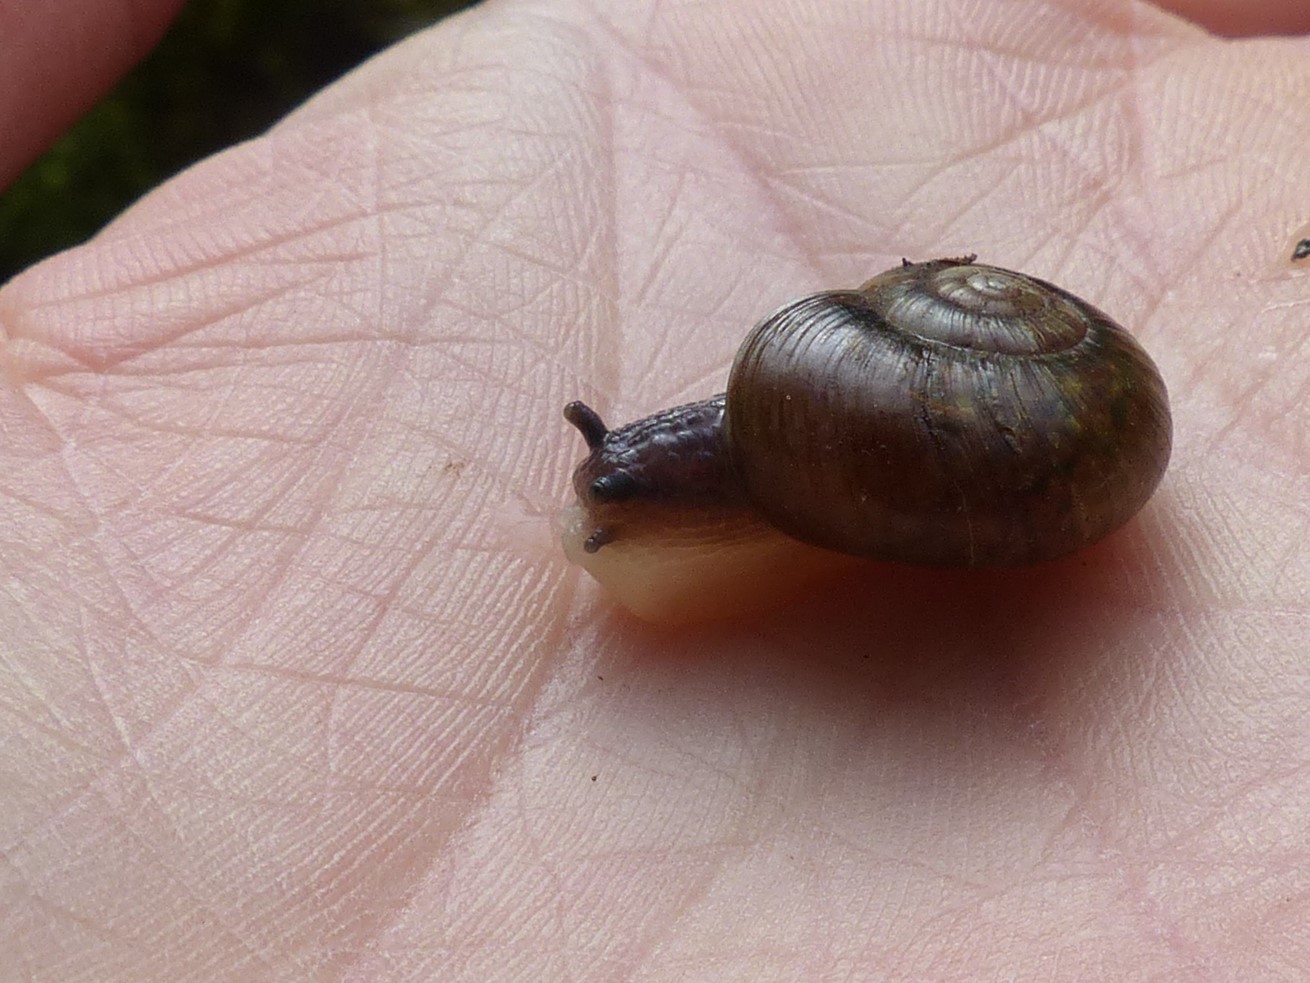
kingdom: Animalia
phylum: Mollusca
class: Gastropoda
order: Stylommatophora
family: Haplotrematidae
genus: Haplotrema
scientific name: Haplotrema vancouverense
